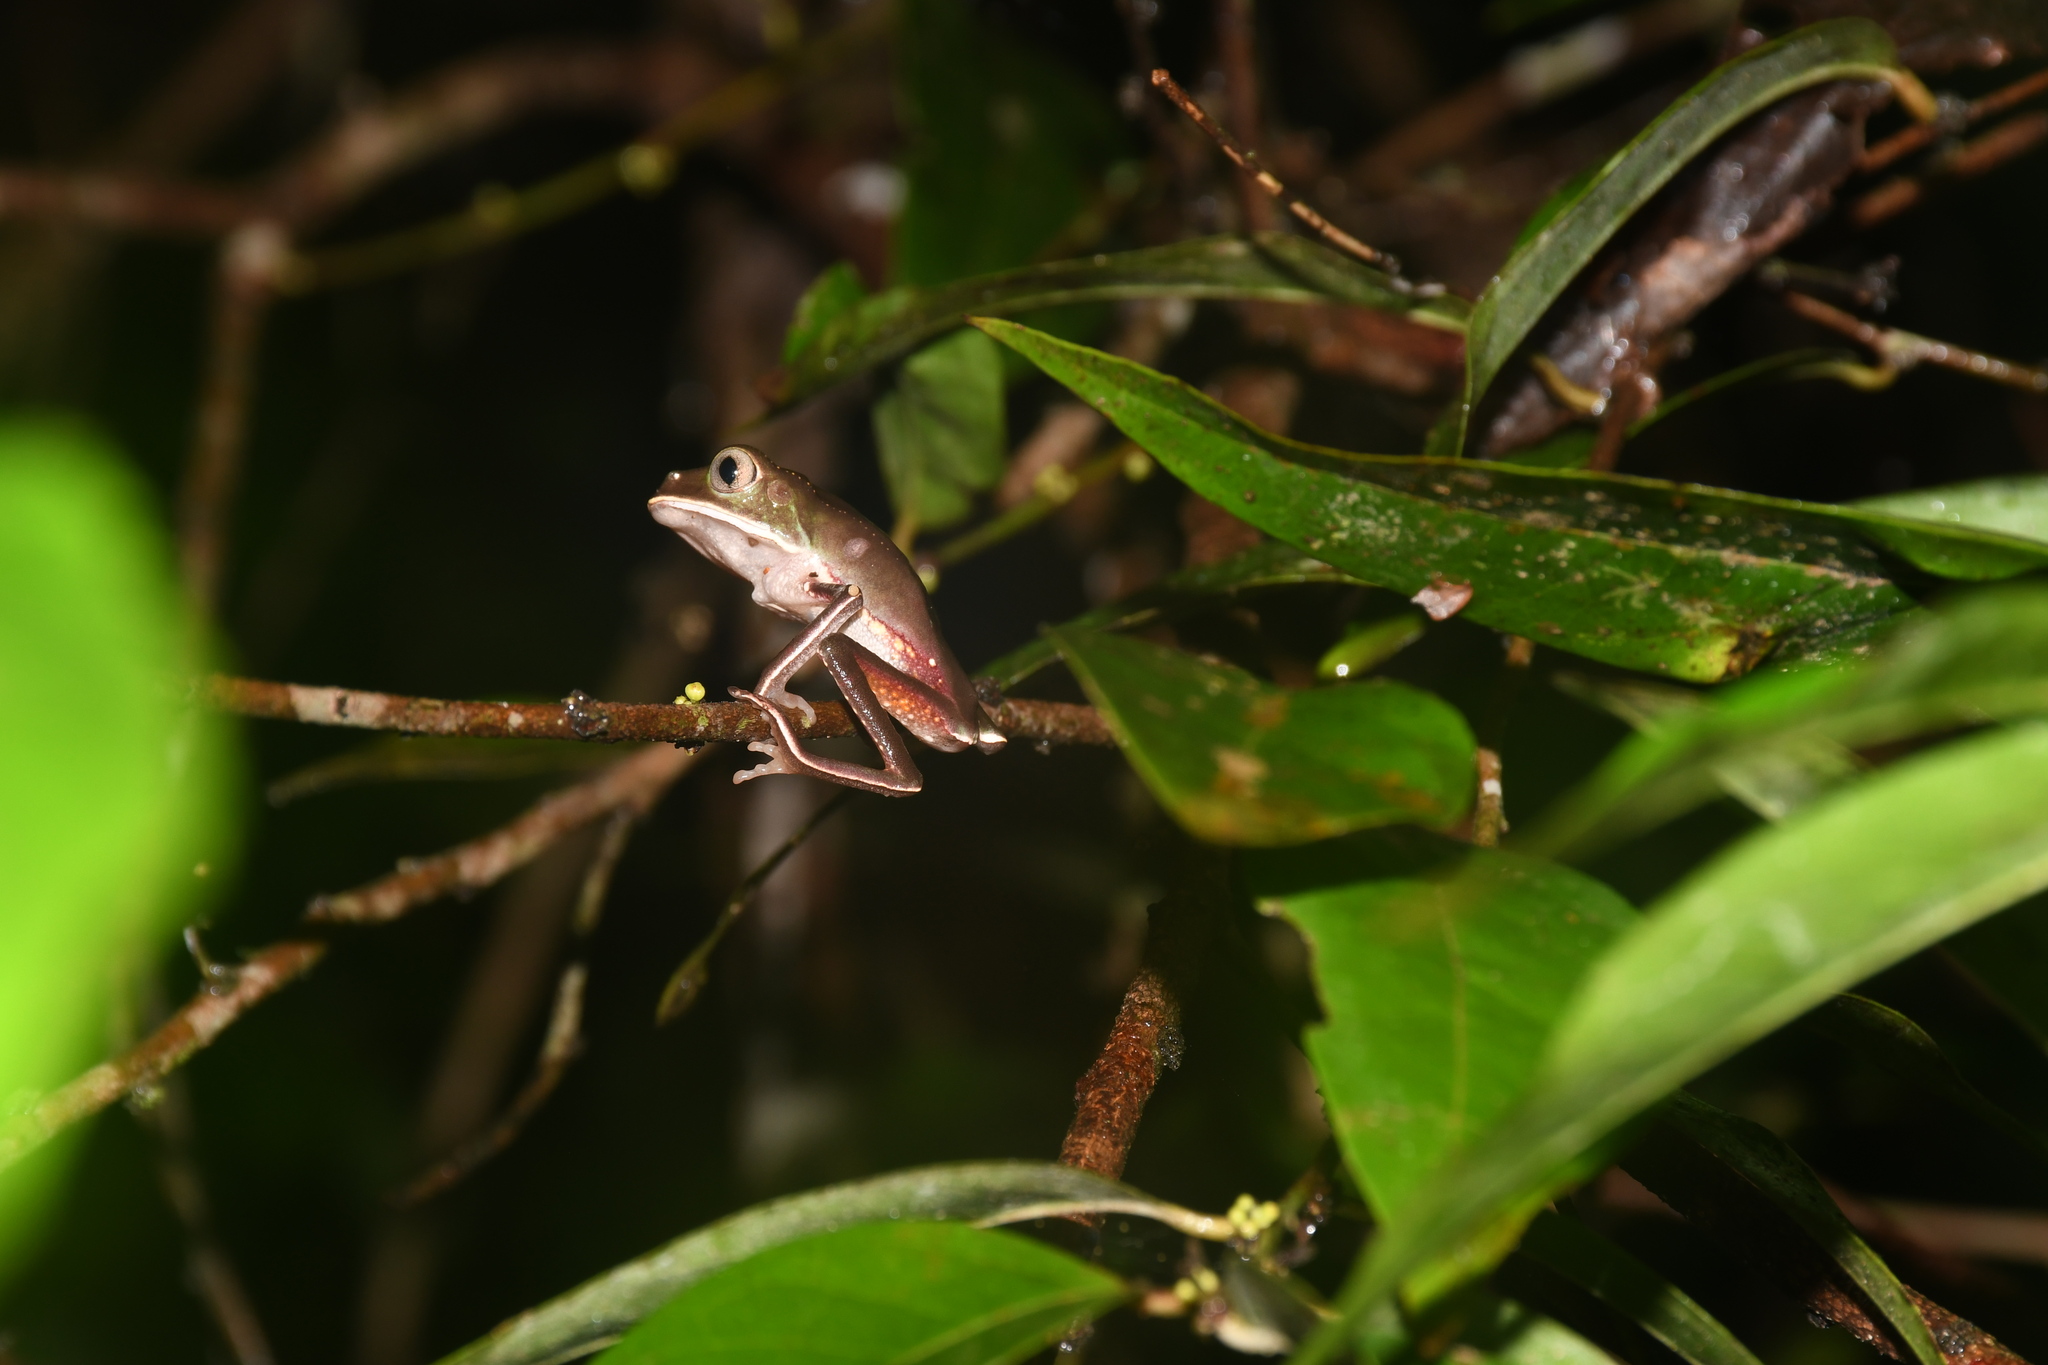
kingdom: Animalia
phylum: Chordata
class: Amphibia
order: Anura
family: Phyllomedusidae
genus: Phyllomedusa
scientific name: Phyllomedusa vaillantii
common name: White-lined leaf frog
